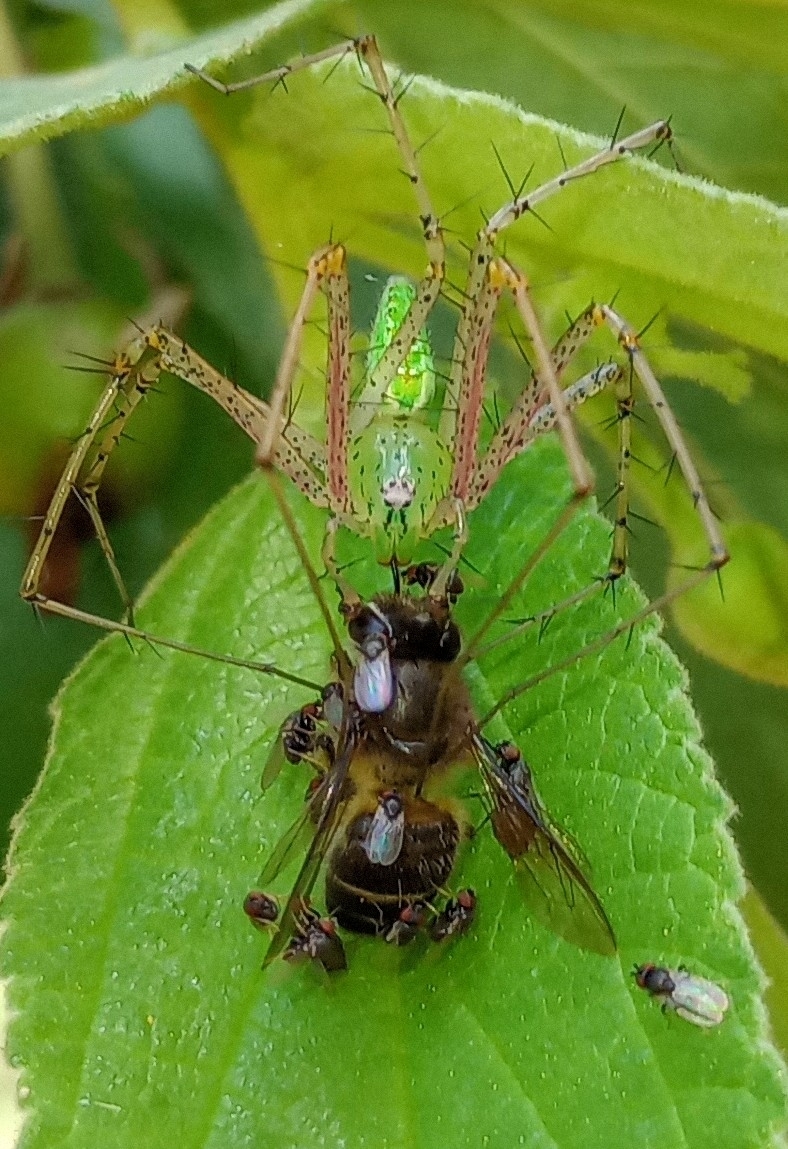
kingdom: Animalia
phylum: Arthropoda
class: Arachnida
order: Araneae
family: Oxyopidae
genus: Peucetia
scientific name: Peucetia viridana
